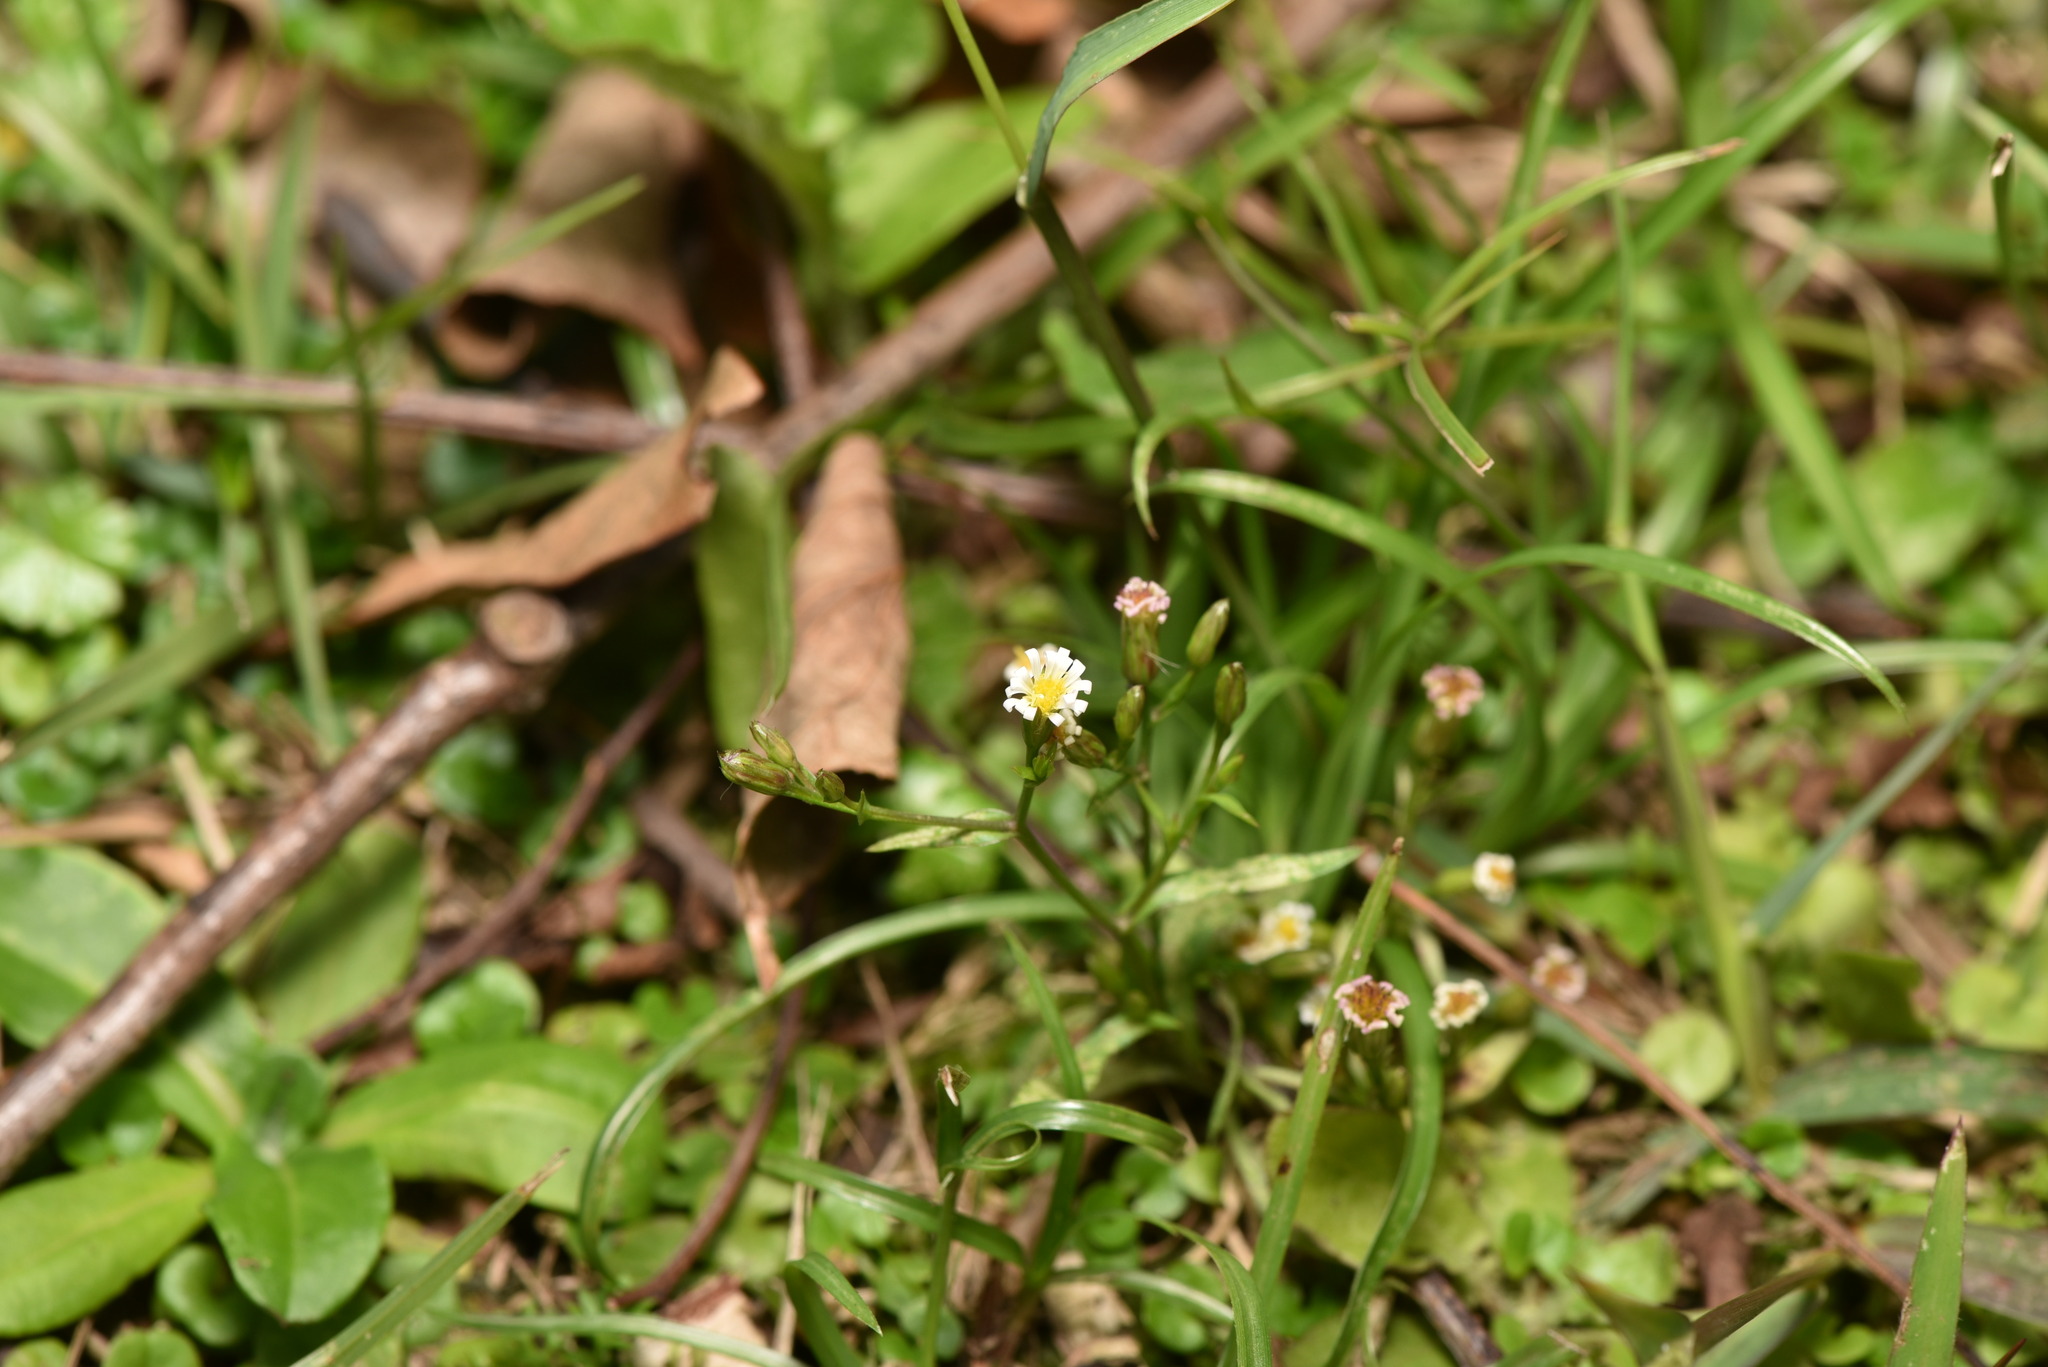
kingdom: Plantae
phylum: Tracheophyta
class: Magnoliopsida
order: Asterales
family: Asteraceae
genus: Symphyotrichum
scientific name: Symphyotrichum subulatum
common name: Annual saltmarsh aster
